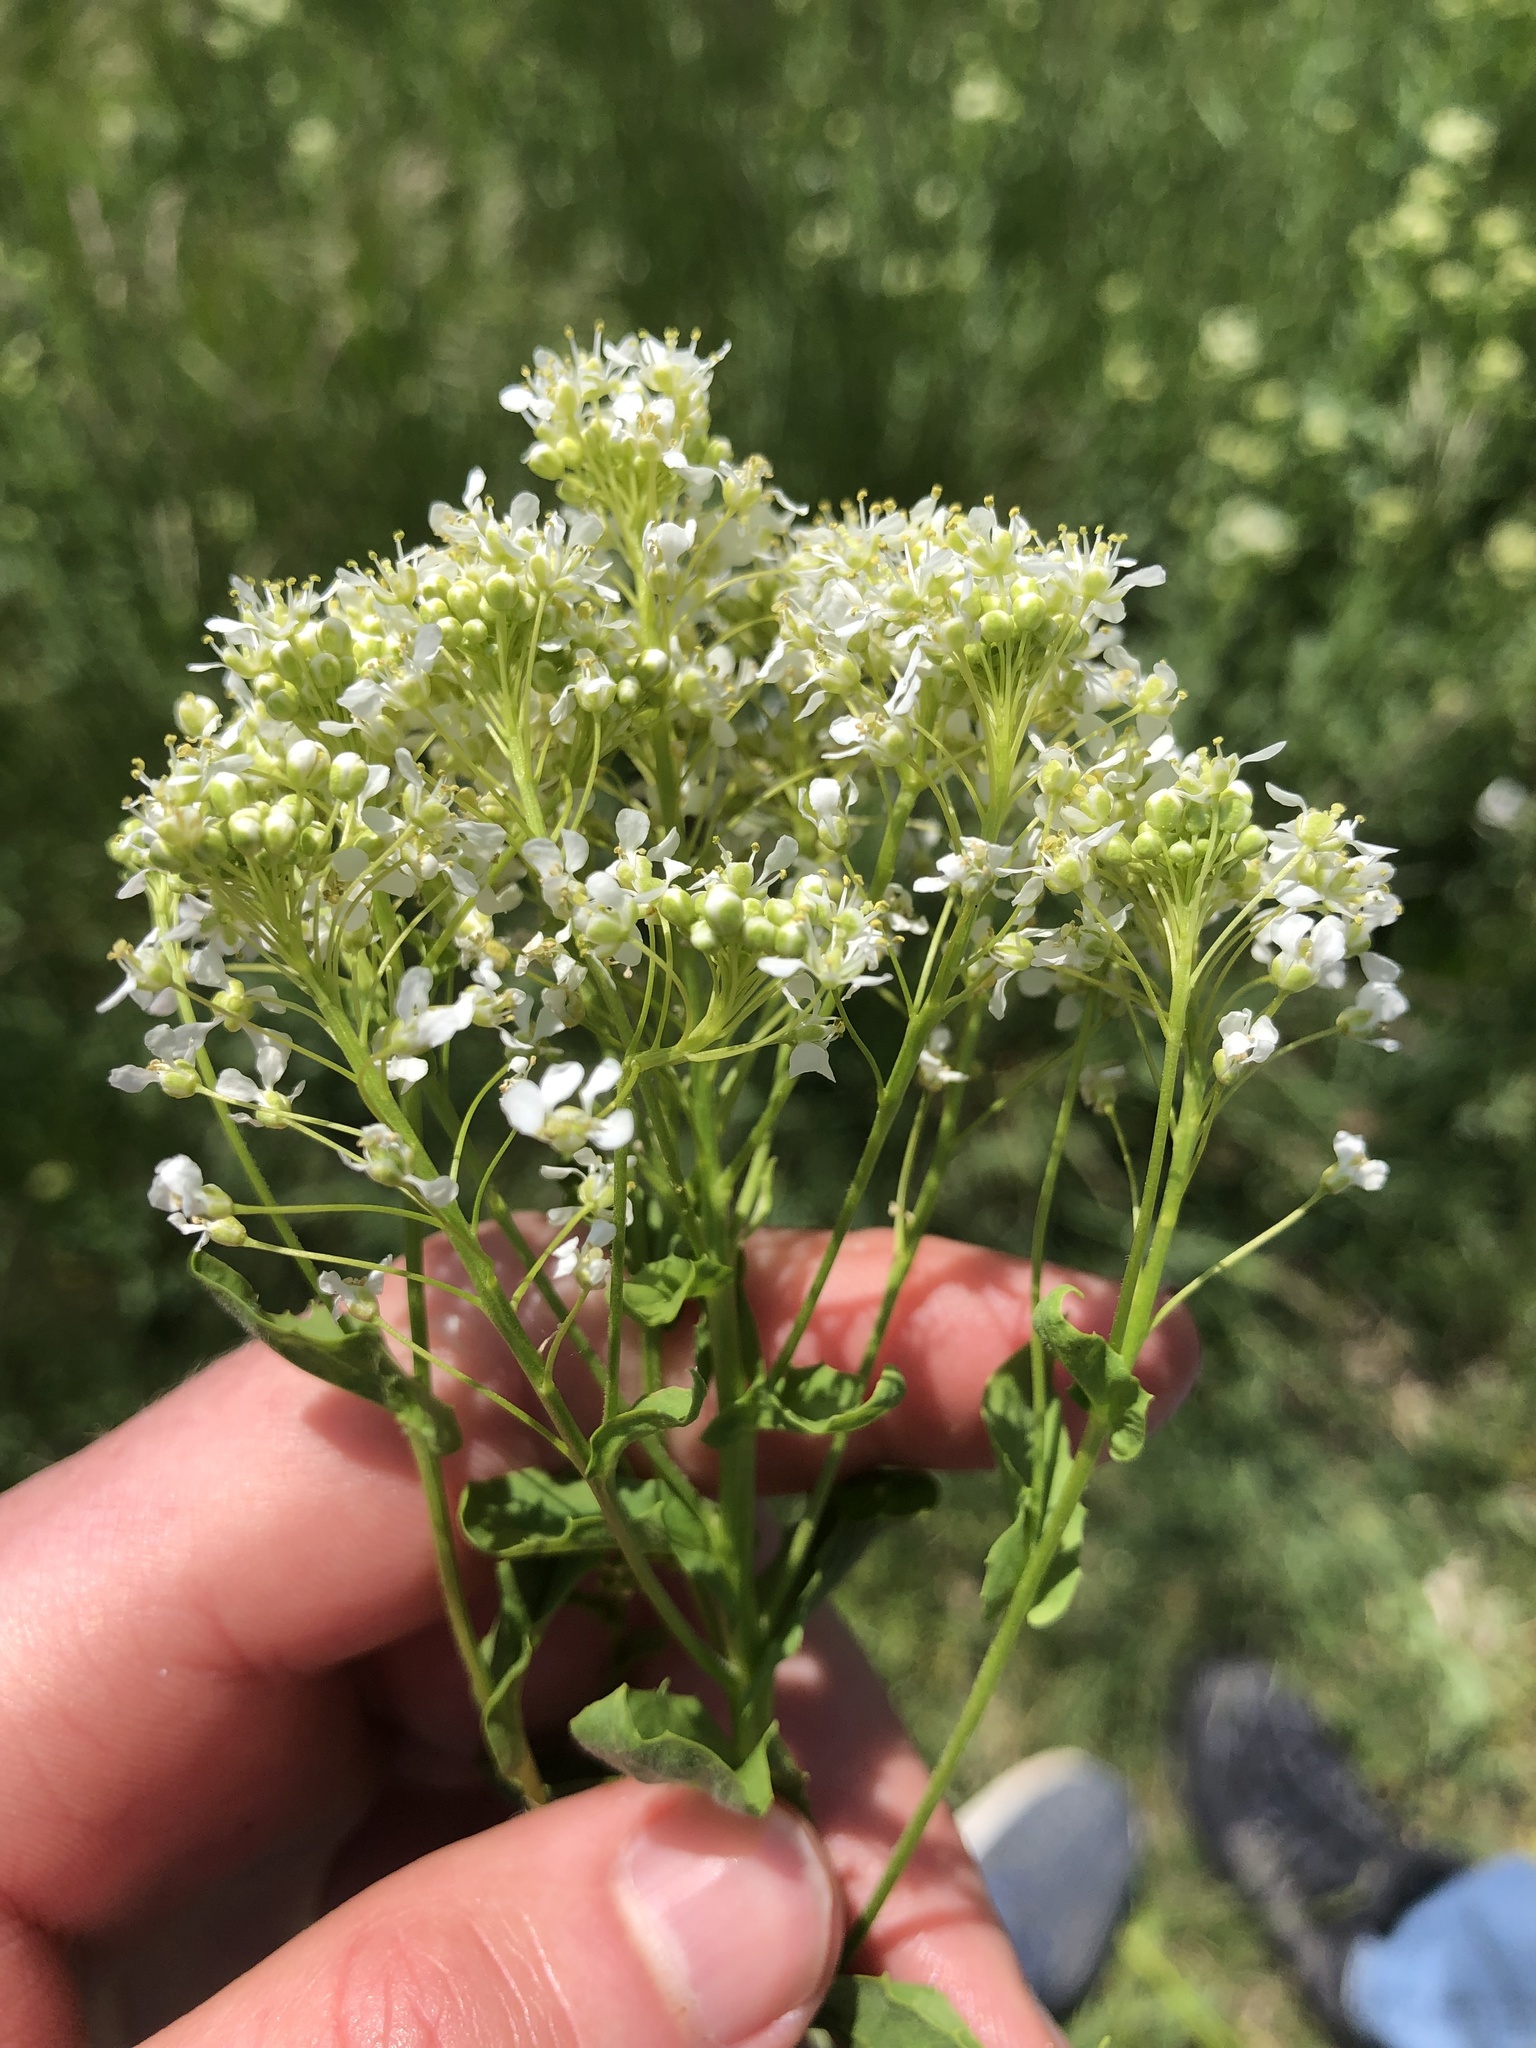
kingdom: Plantae
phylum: Tracheophyta
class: Magnoliopsida
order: Brassicales
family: Brassicaceae
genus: Lepidium
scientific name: Lepidium draba
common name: Hoary cress
